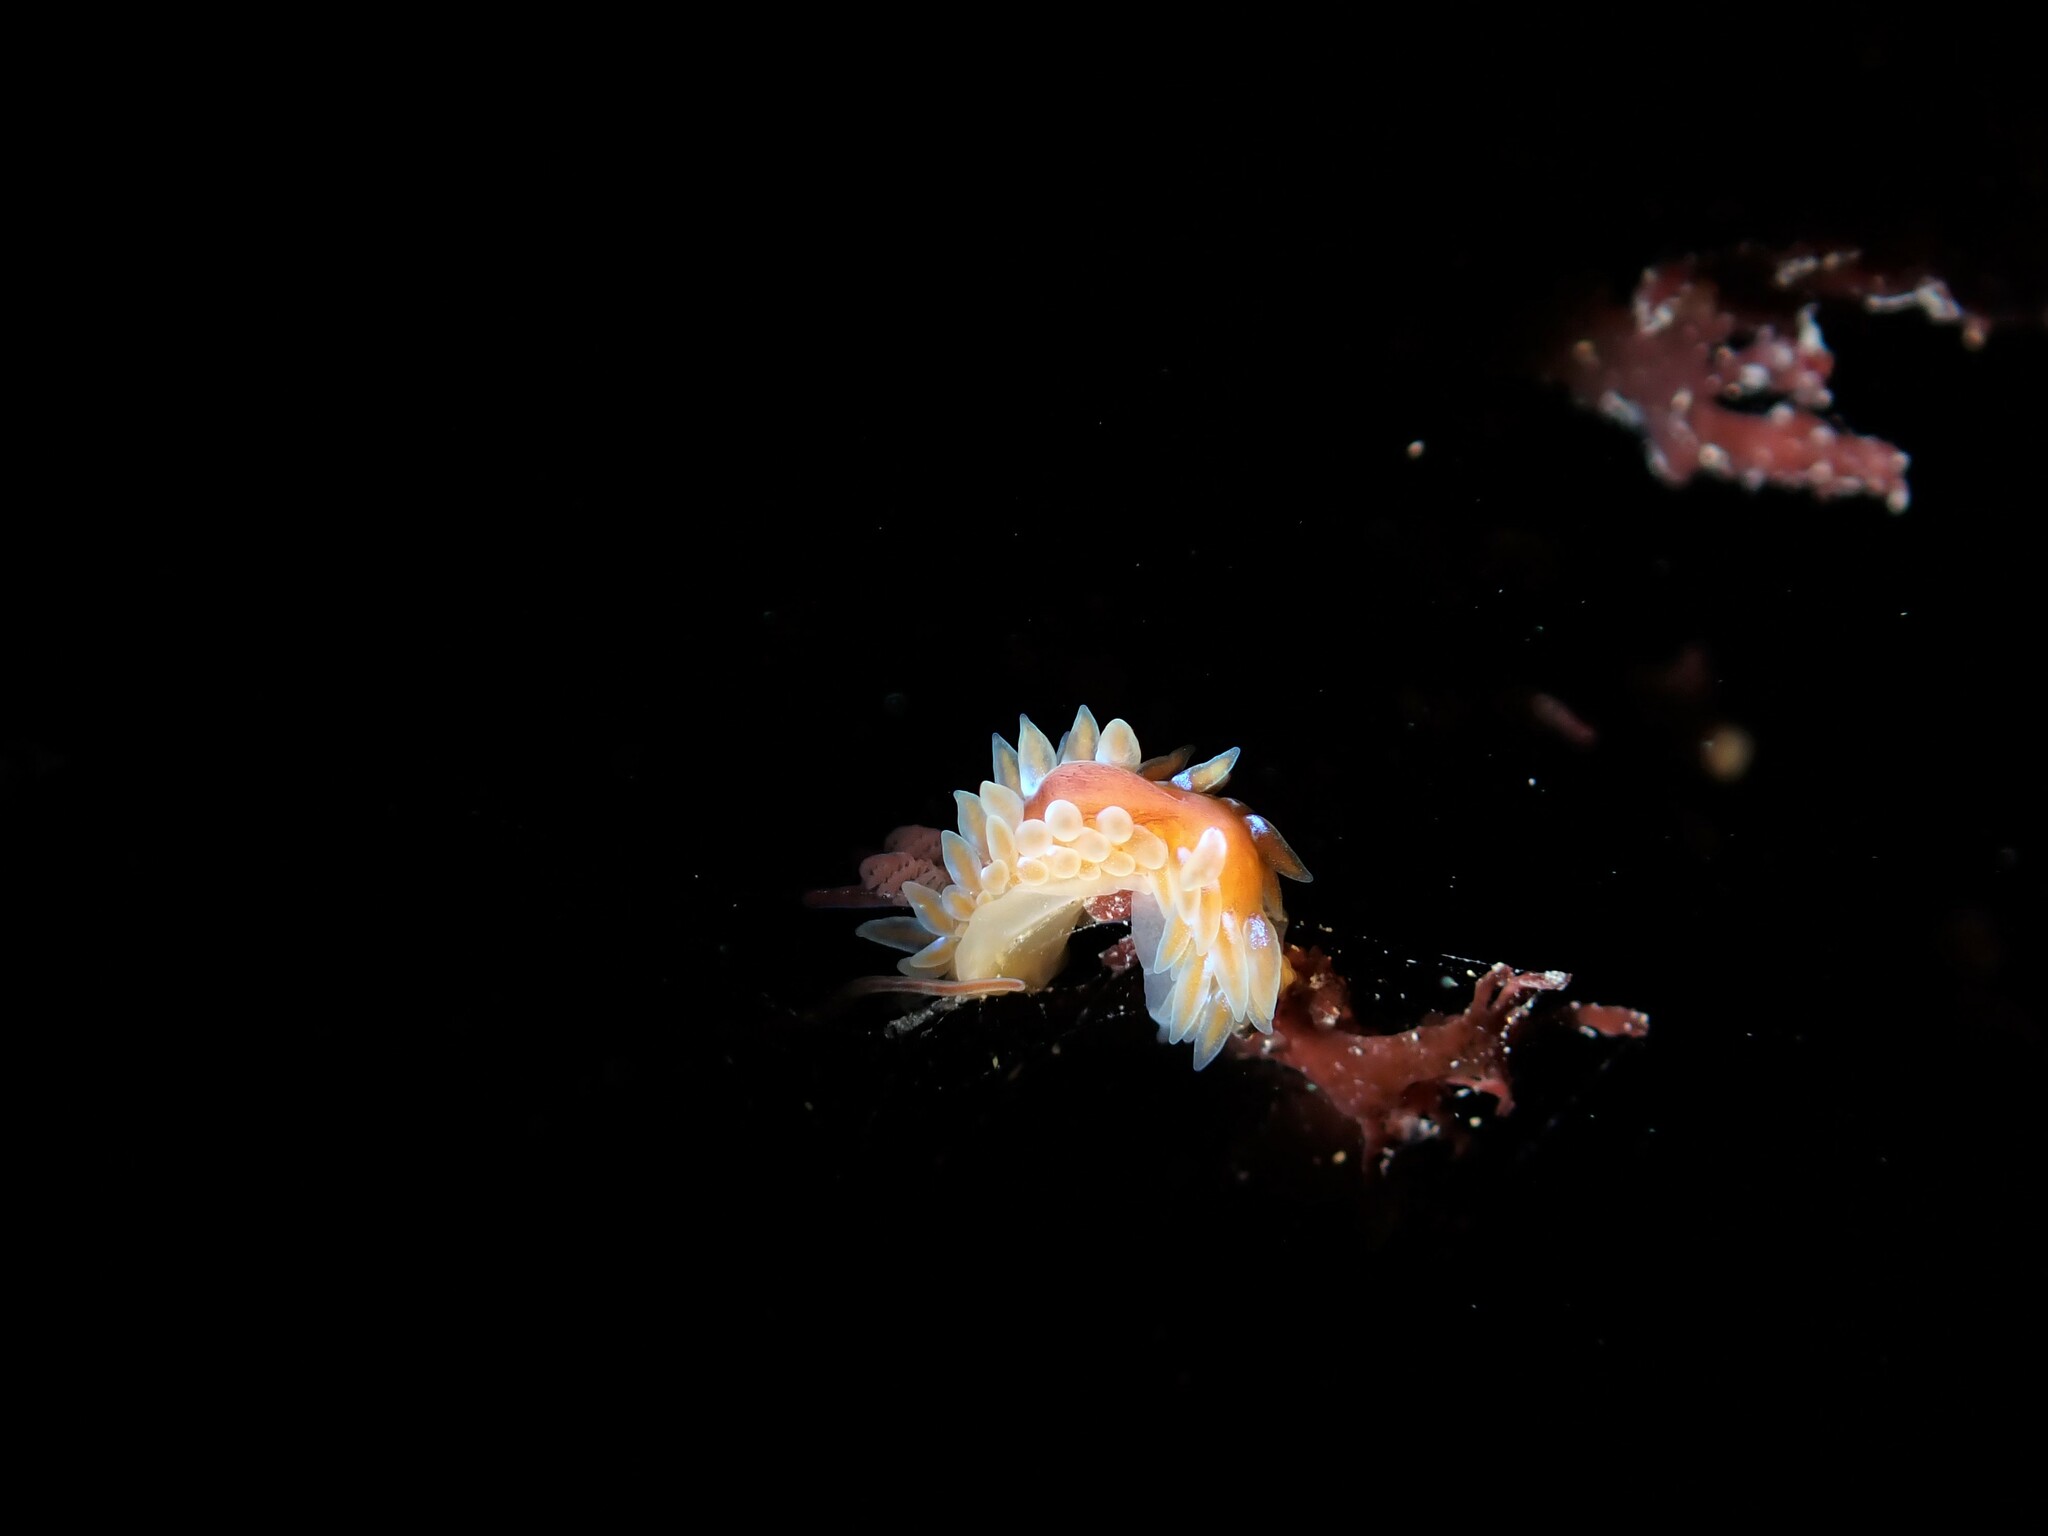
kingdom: Animalia
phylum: Mollusca
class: Gastropoda
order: Nudibranchia
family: Proctonotidae
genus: Caldukia
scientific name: Caldukia rubiginosa
